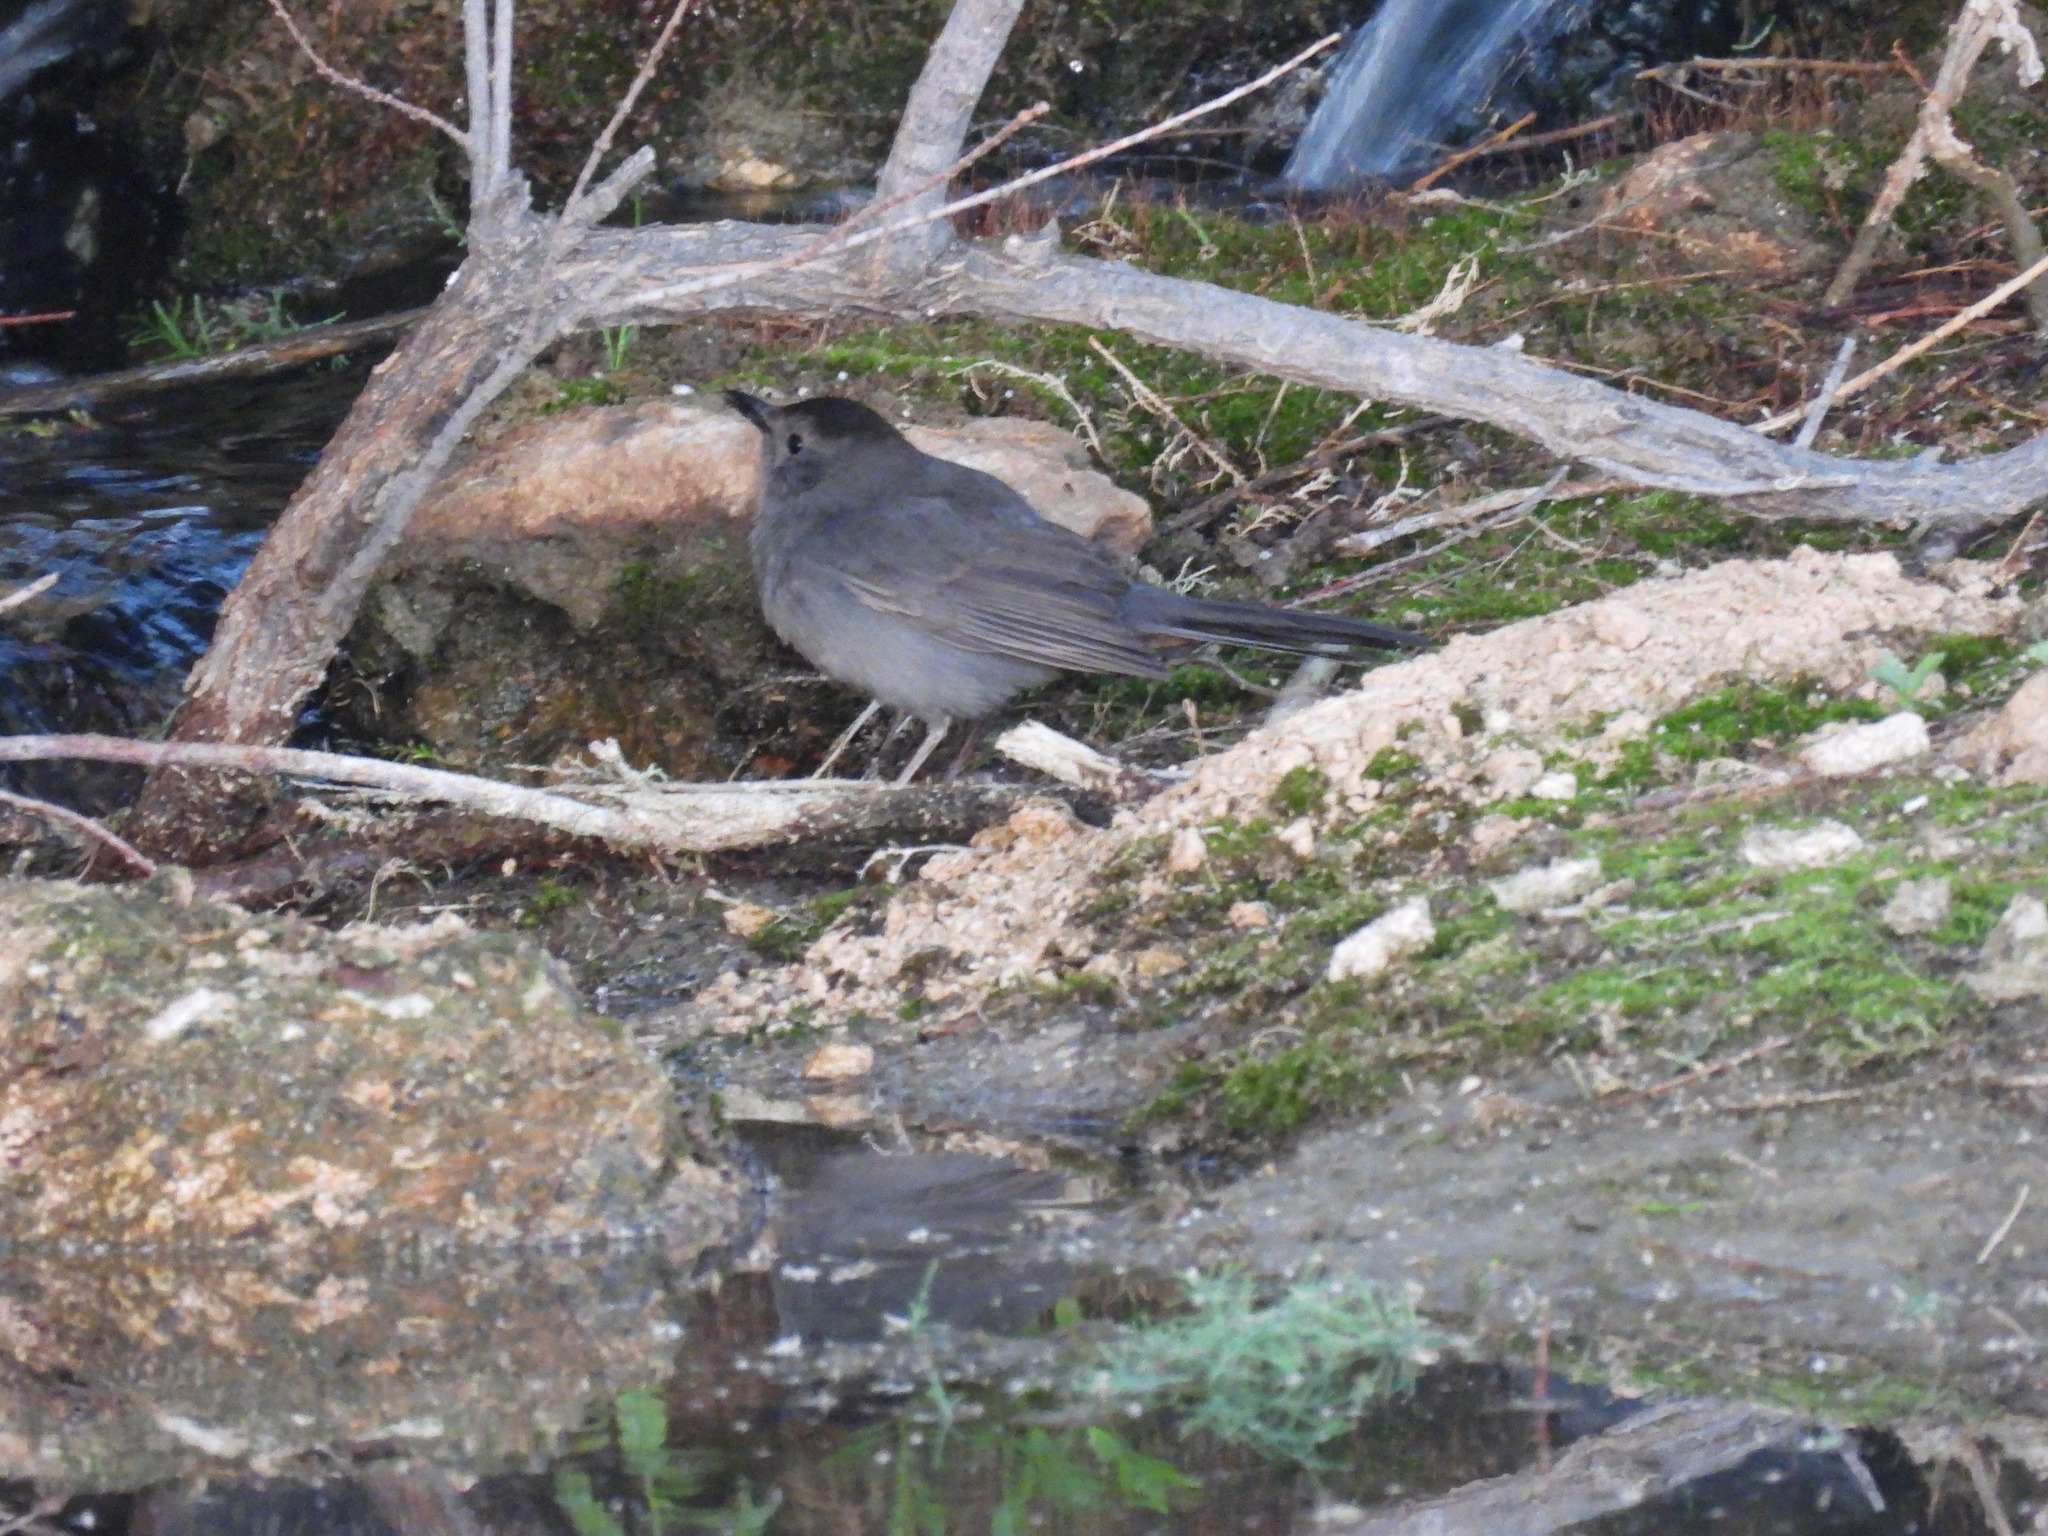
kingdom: Animalia
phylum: Chordata
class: Aves
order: Passeriformes
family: Mimidae
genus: Dumetella
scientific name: Dumetella carolinensis
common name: Gray catbird
